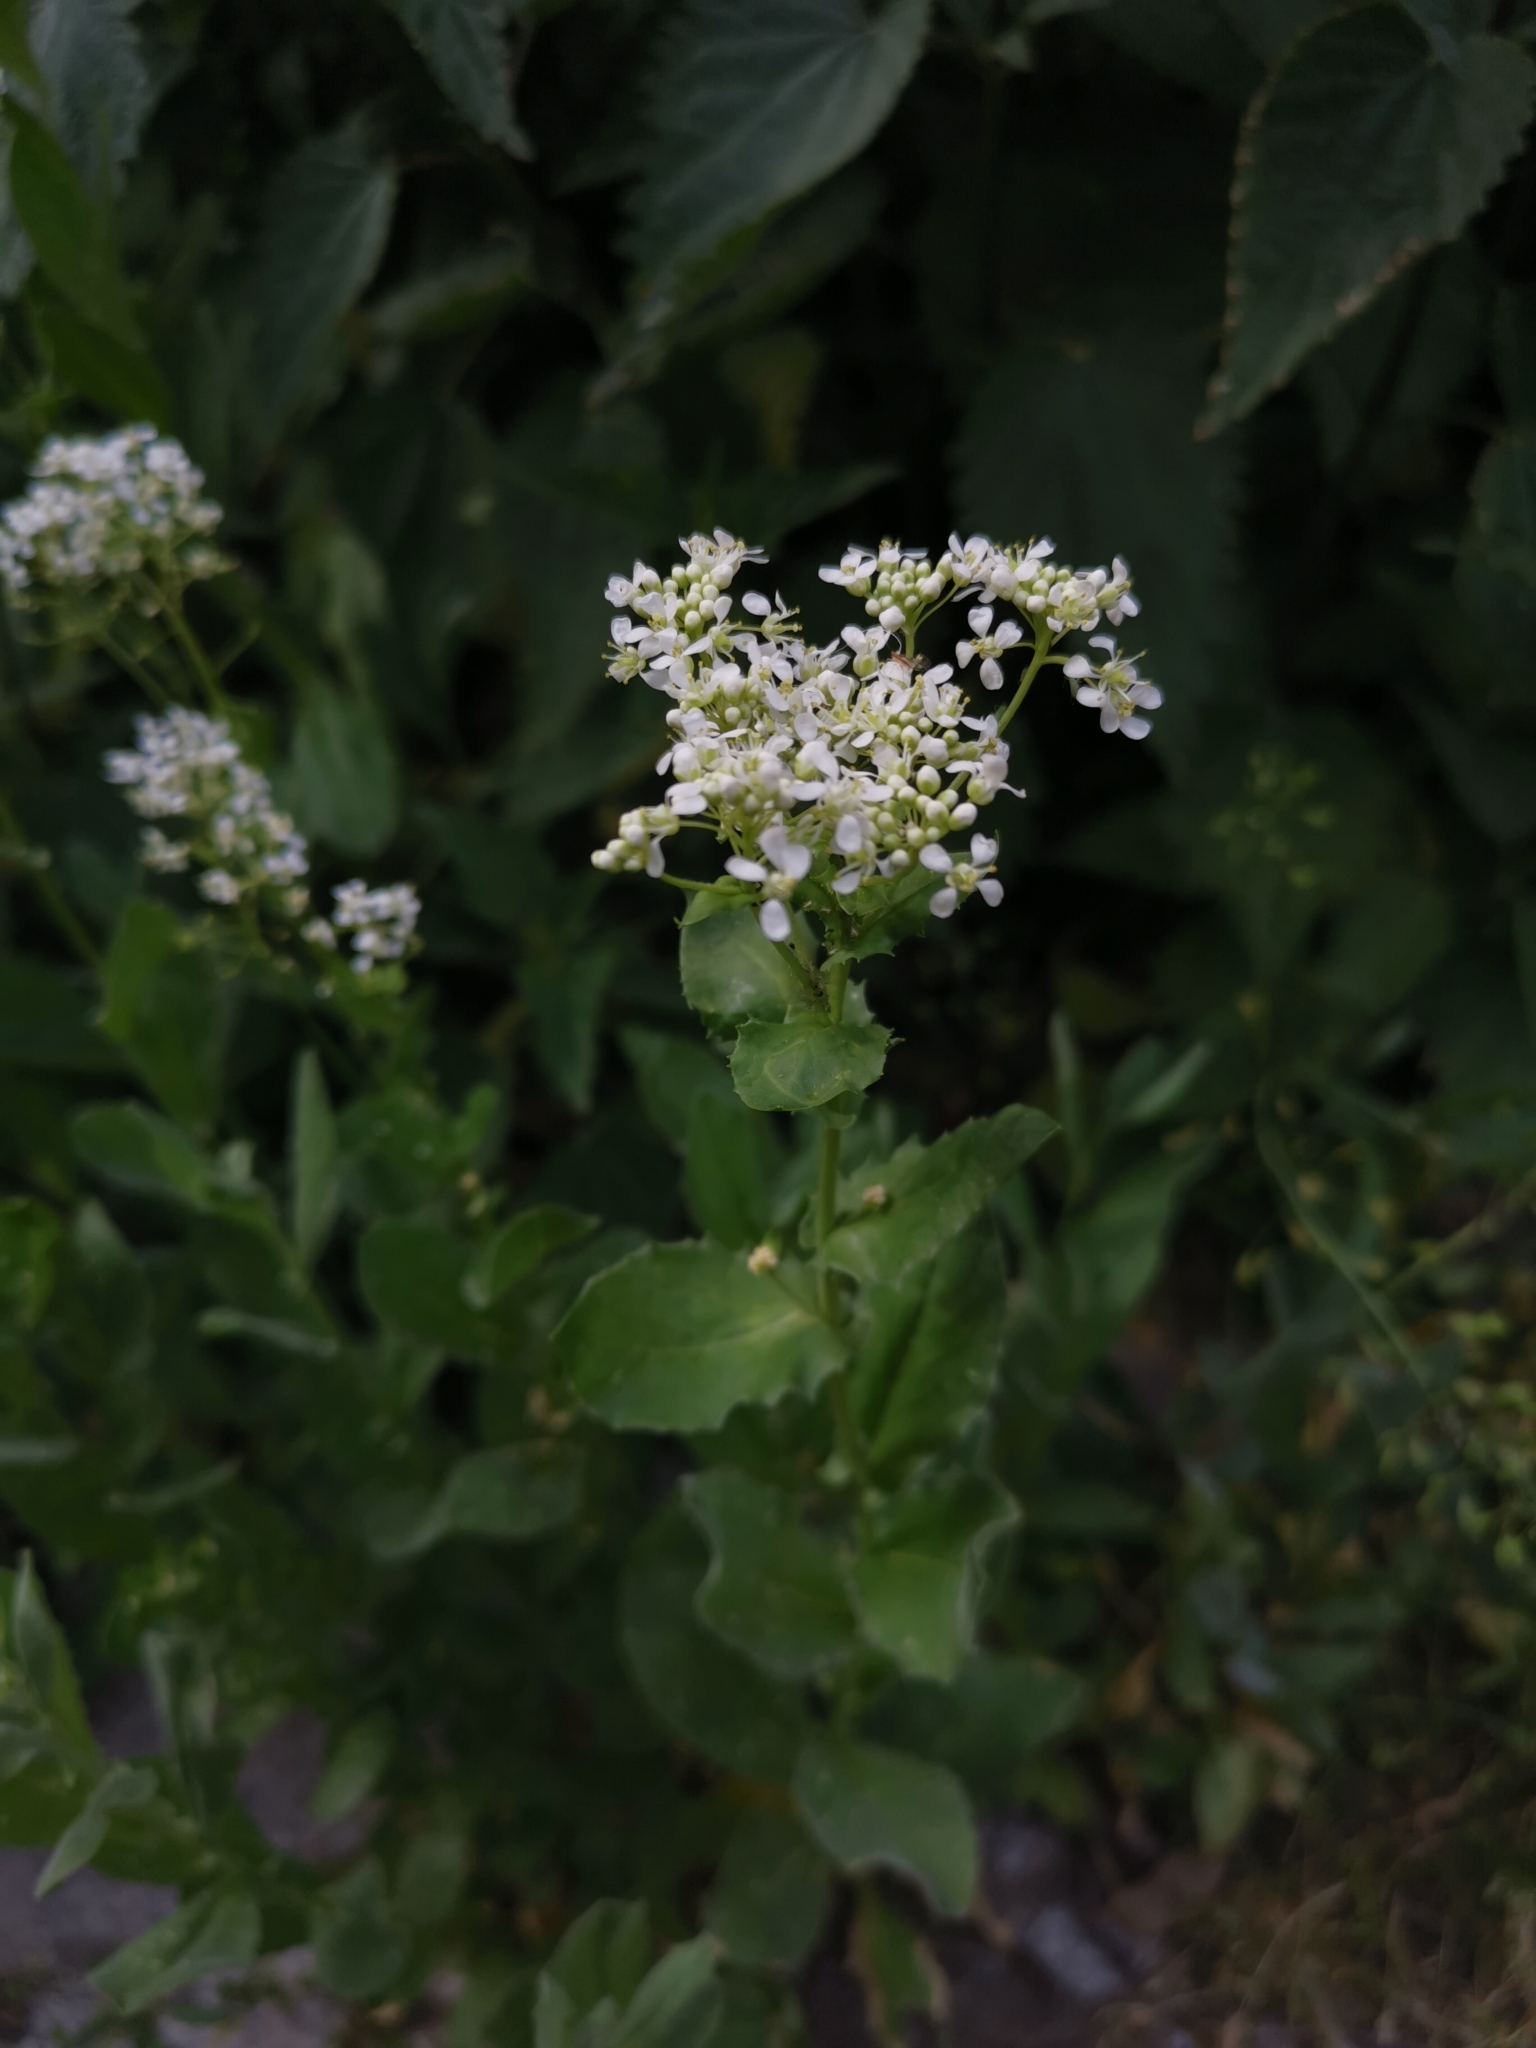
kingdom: Plantae
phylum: Tracheophyta
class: Magnoliopsida
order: Brassicales
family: Brassicaceae
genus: Lepidium
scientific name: Lepidium draba
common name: Hoary cress
